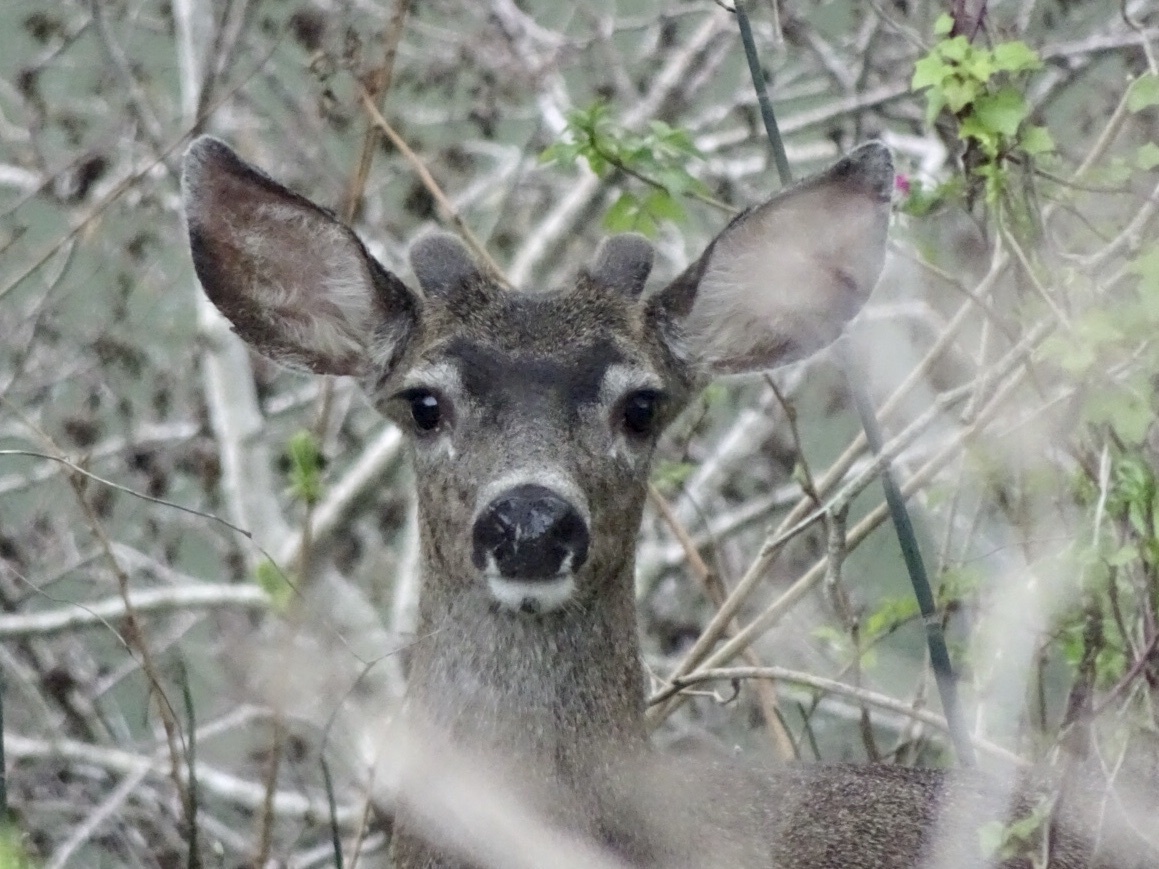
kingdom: Animalia
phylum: Chordata
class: Mammalia
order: Artiodactyla
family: Cervidae
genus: Odocoileus
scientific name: Odocoileus hemionus
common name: Mule deer
